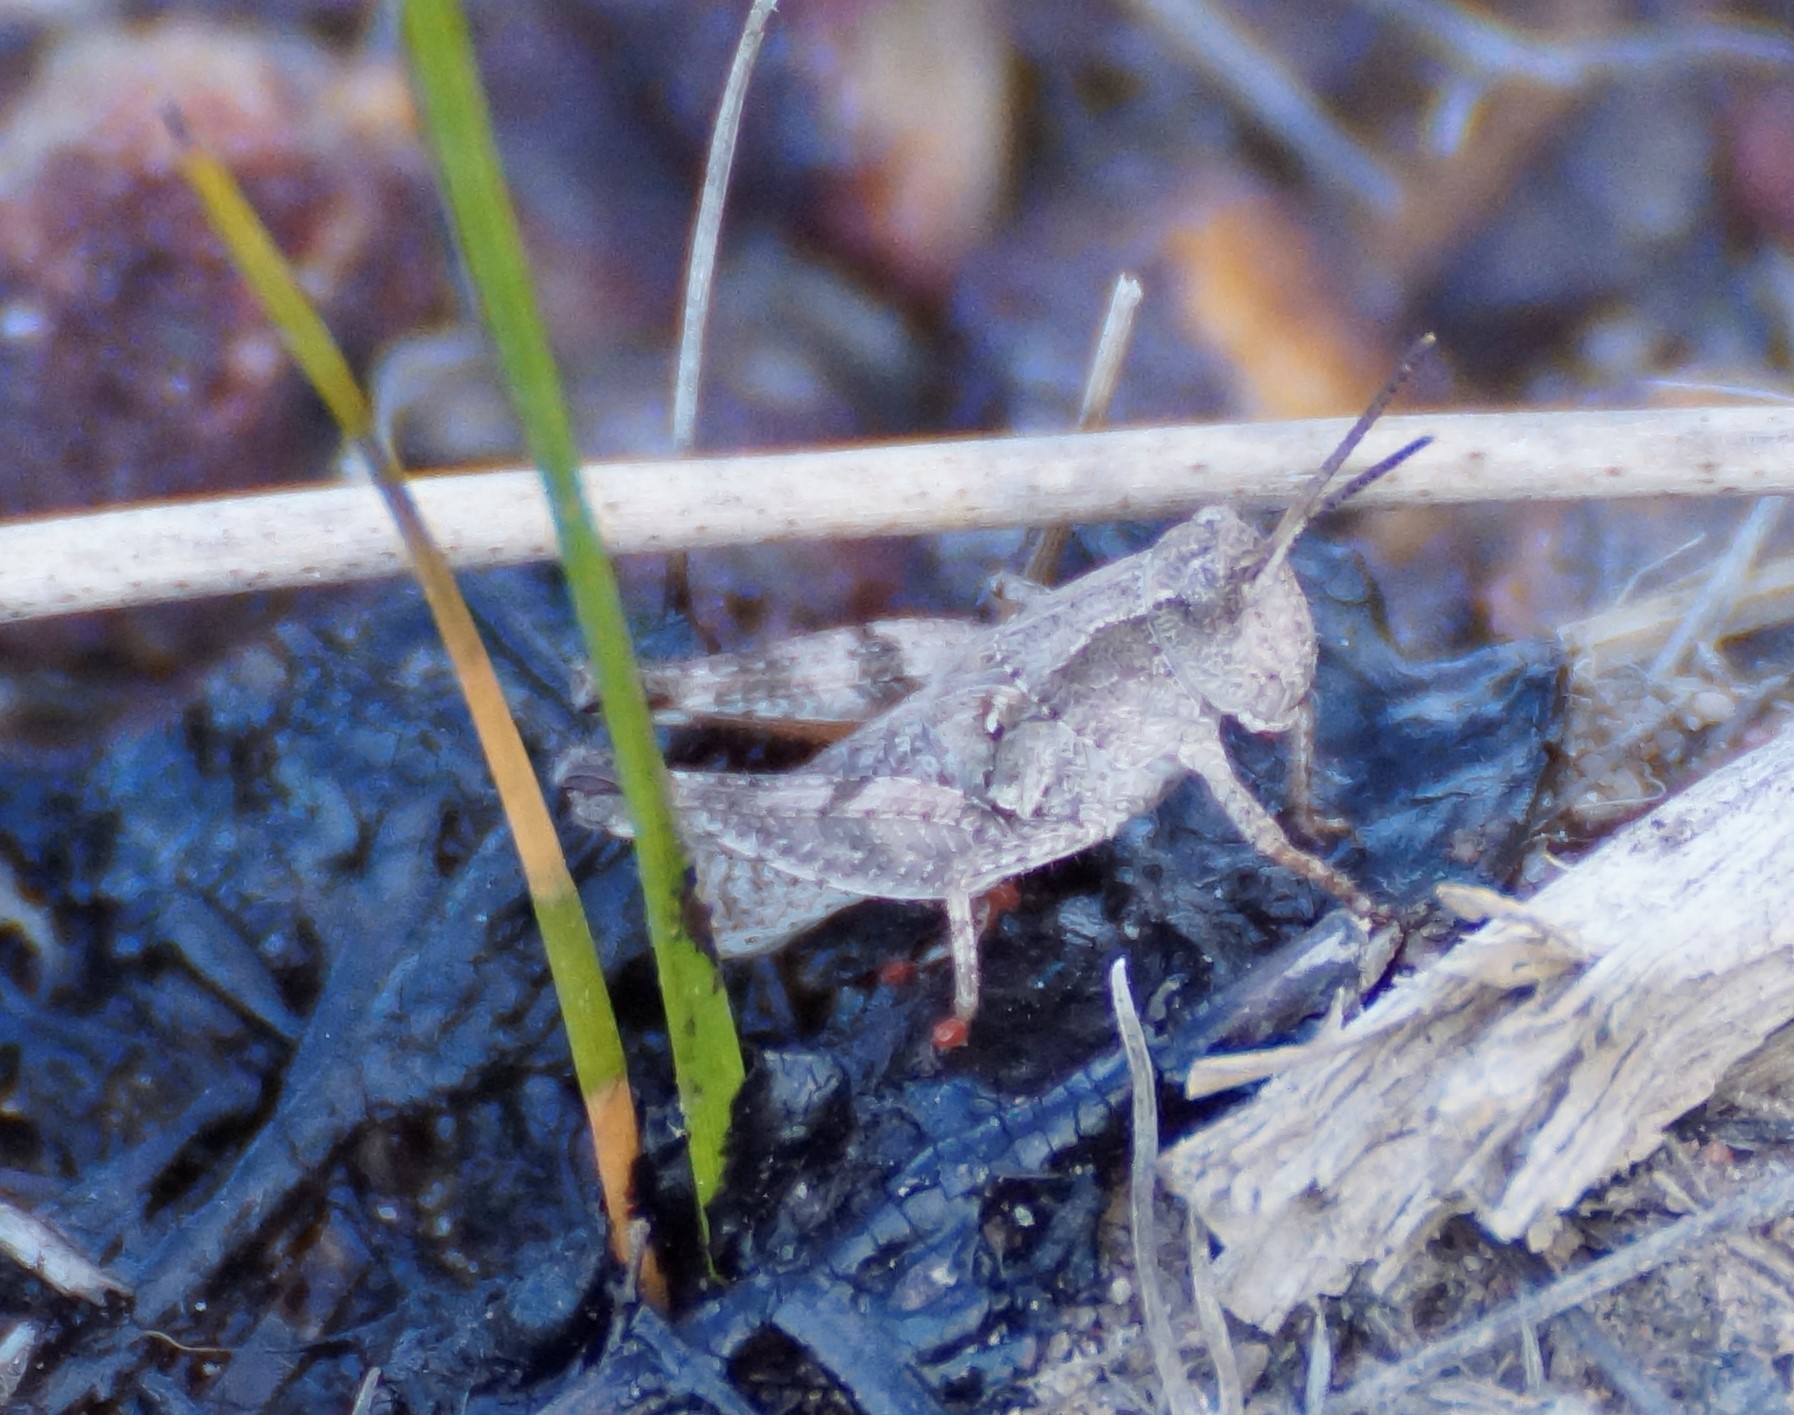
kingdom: Animalia
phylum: Arthropoda
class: Insecta
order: Orthoptera
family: Acrididae
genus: Phaulacridium
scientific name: Phaulacridium vittatum
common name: Wingless grasshopper
